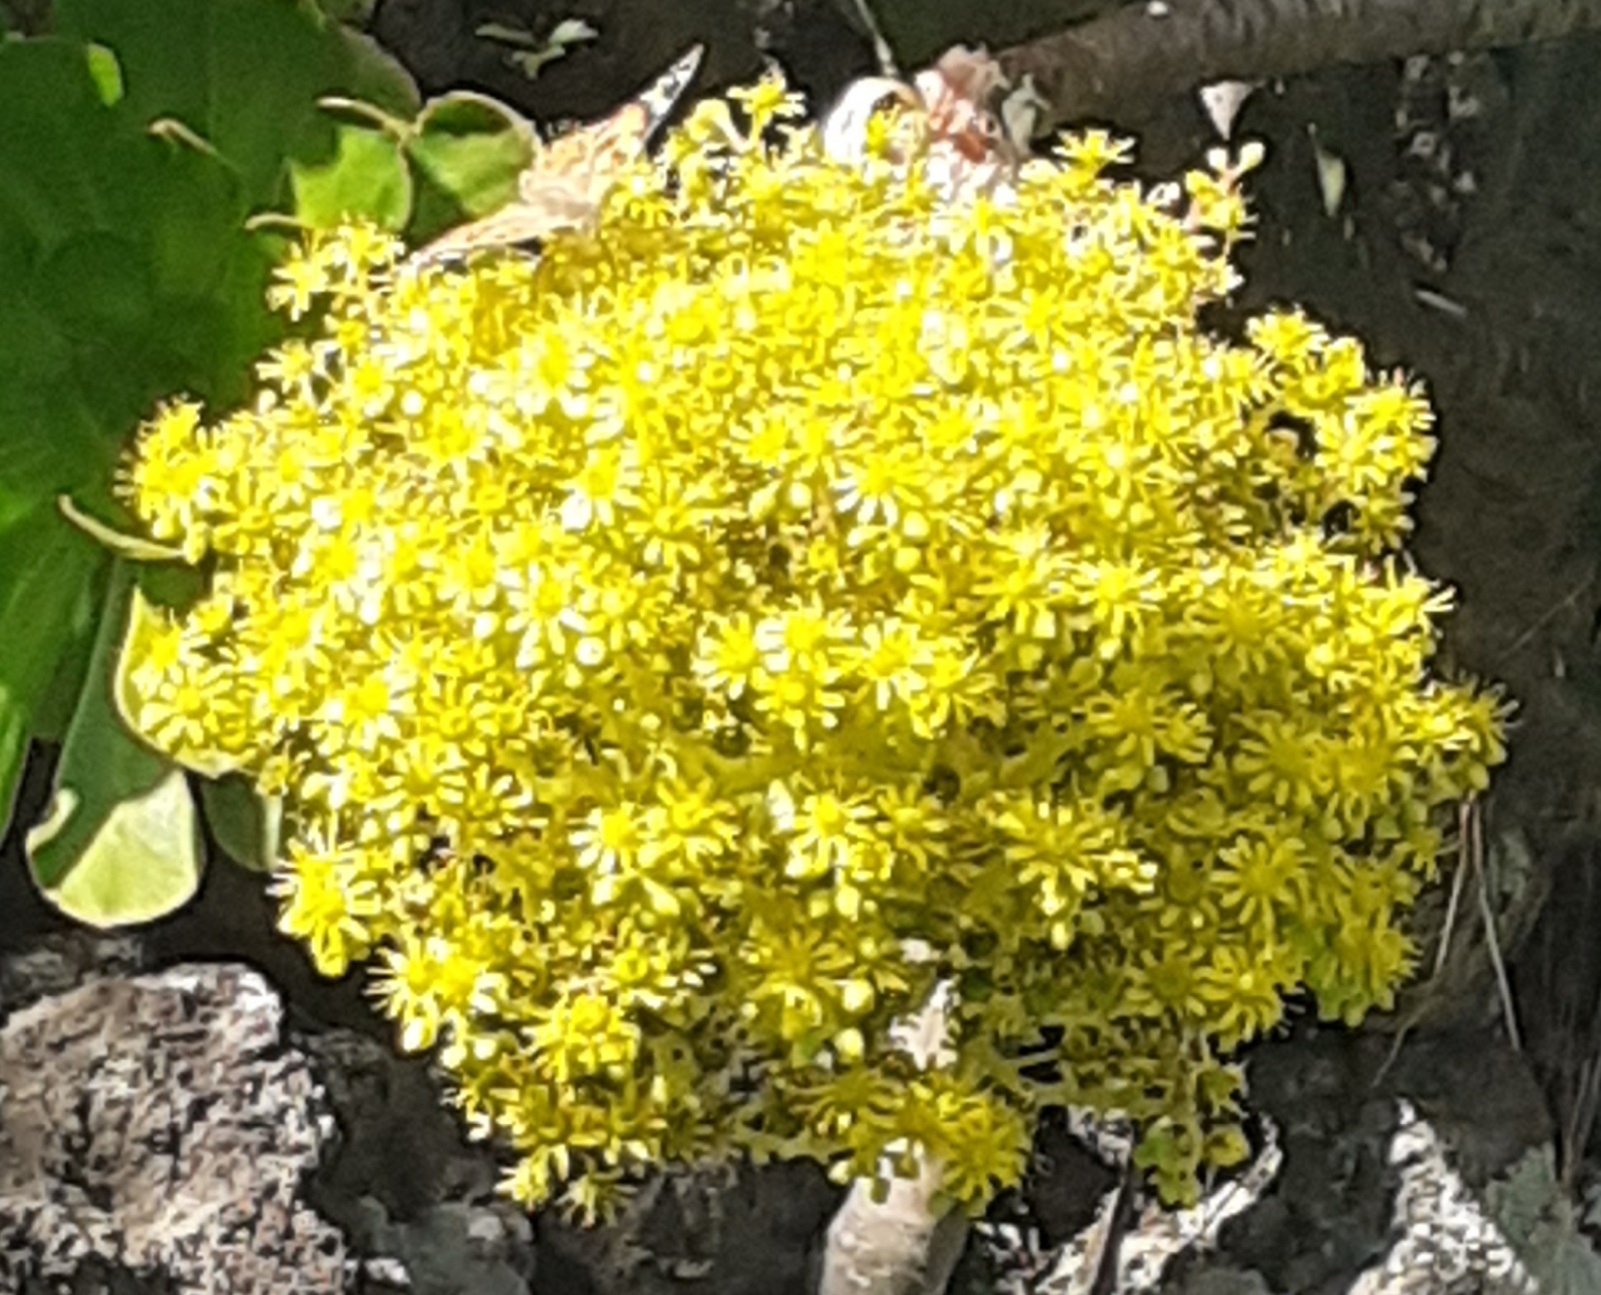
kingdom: Animalia
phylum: Arthropoda
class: Insecta
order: Lepidoptera
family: Nymphalidae
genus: Vanessa
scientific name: Vanessa cardui
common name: Painted lady
